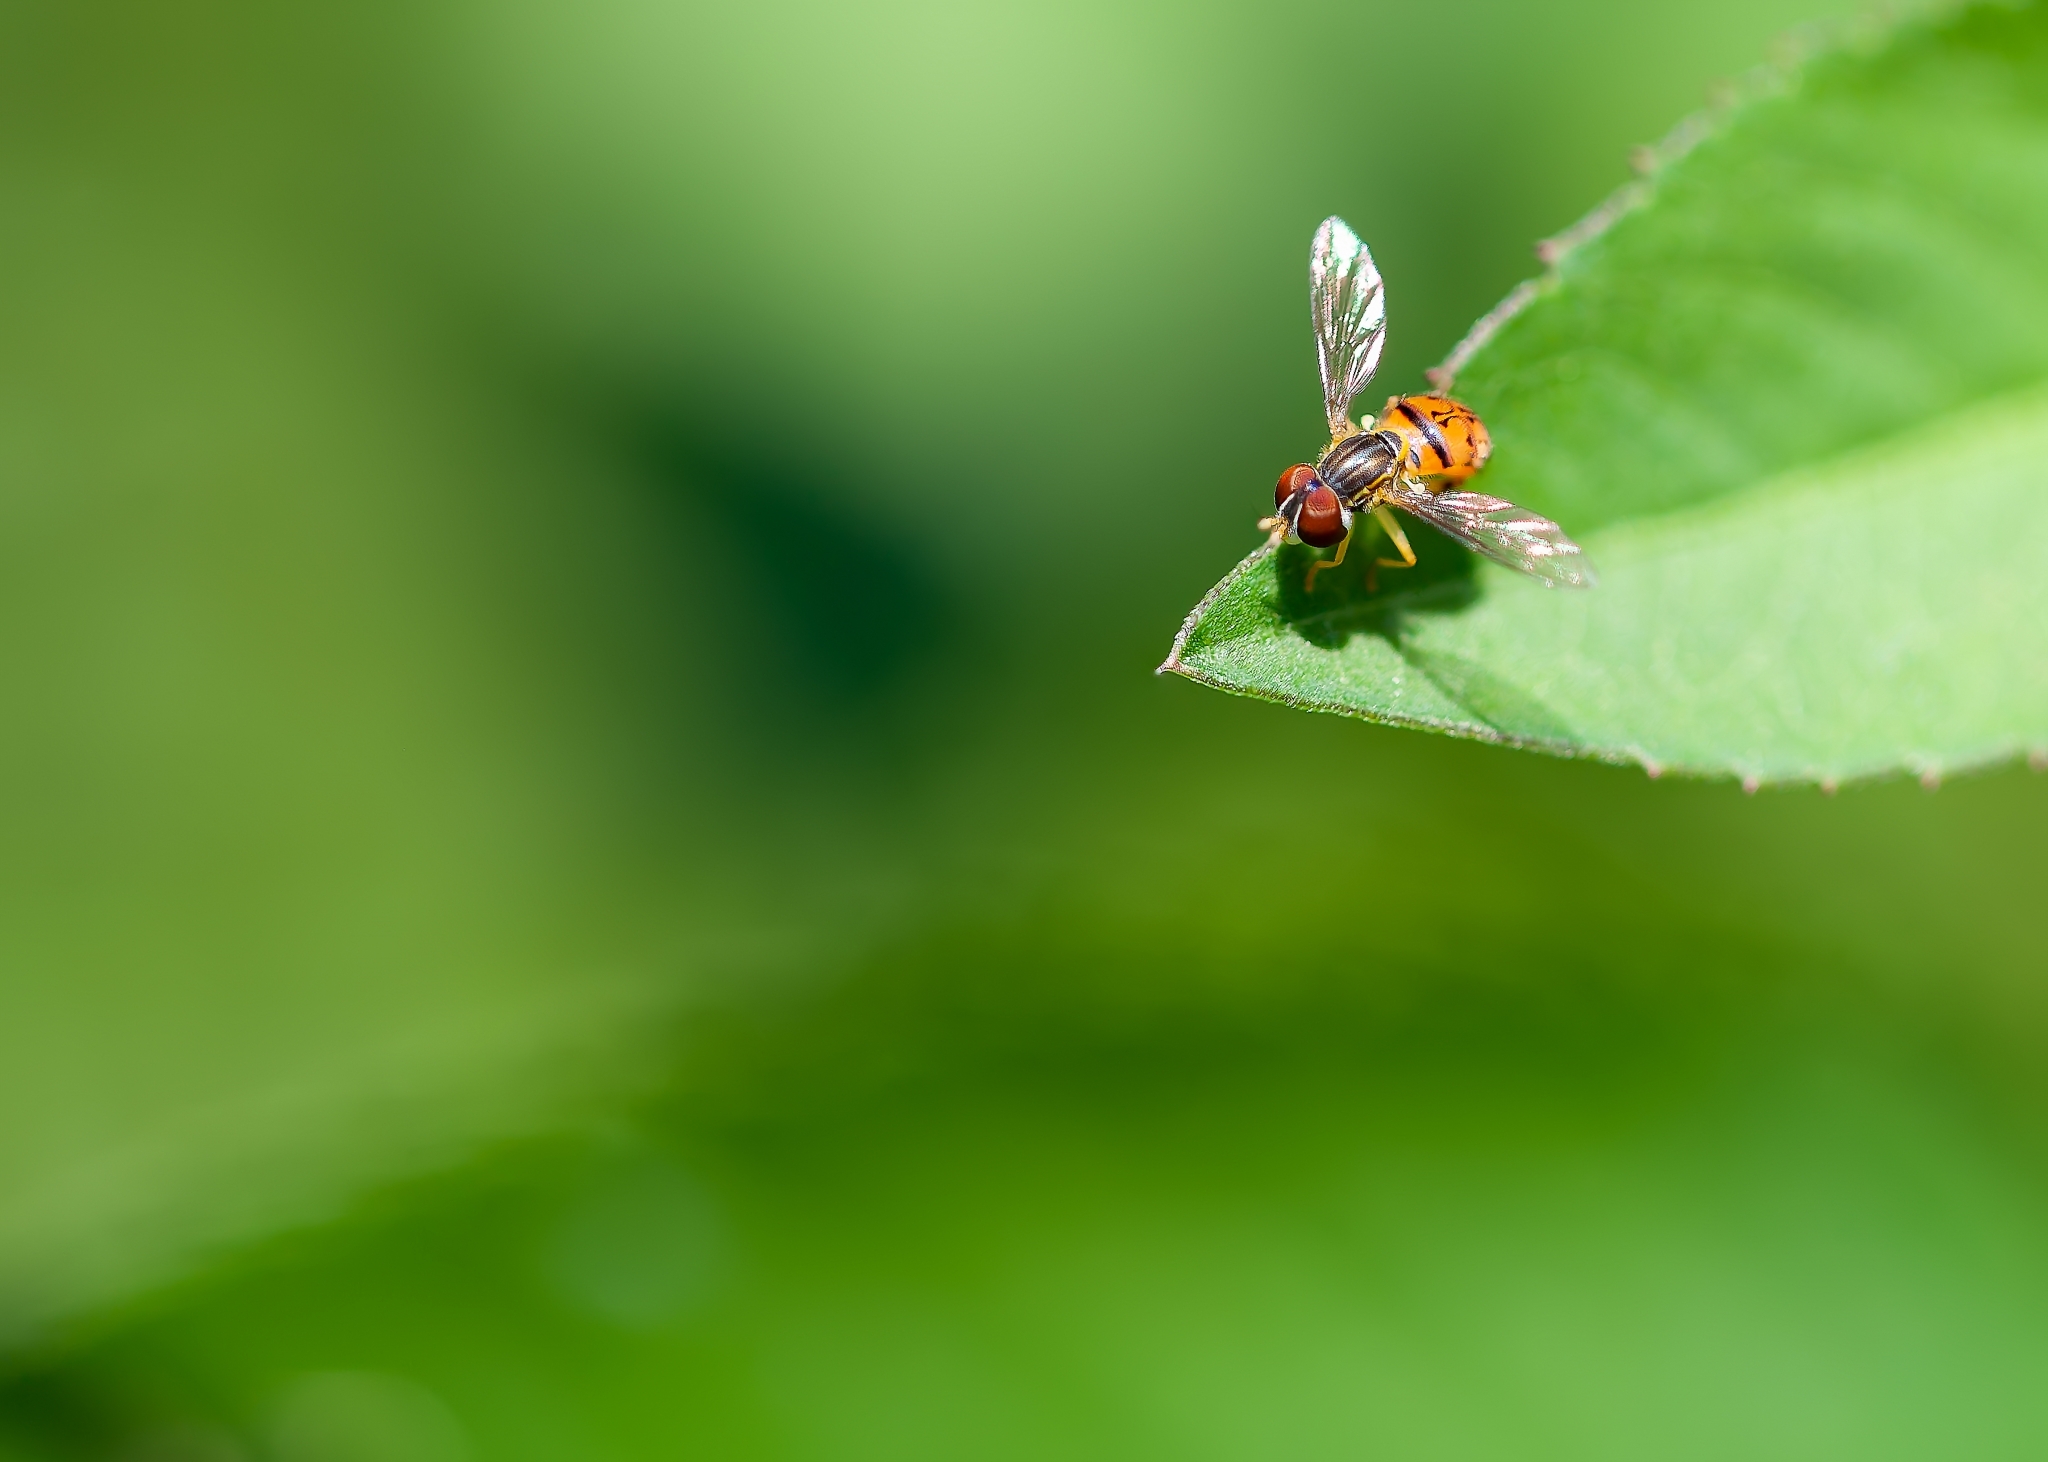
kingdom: Animalia
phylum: Arthropoda
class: Insecta
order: Diptera
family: Syrphidae
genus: Toxomerus
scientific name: Toxomerus boscii
